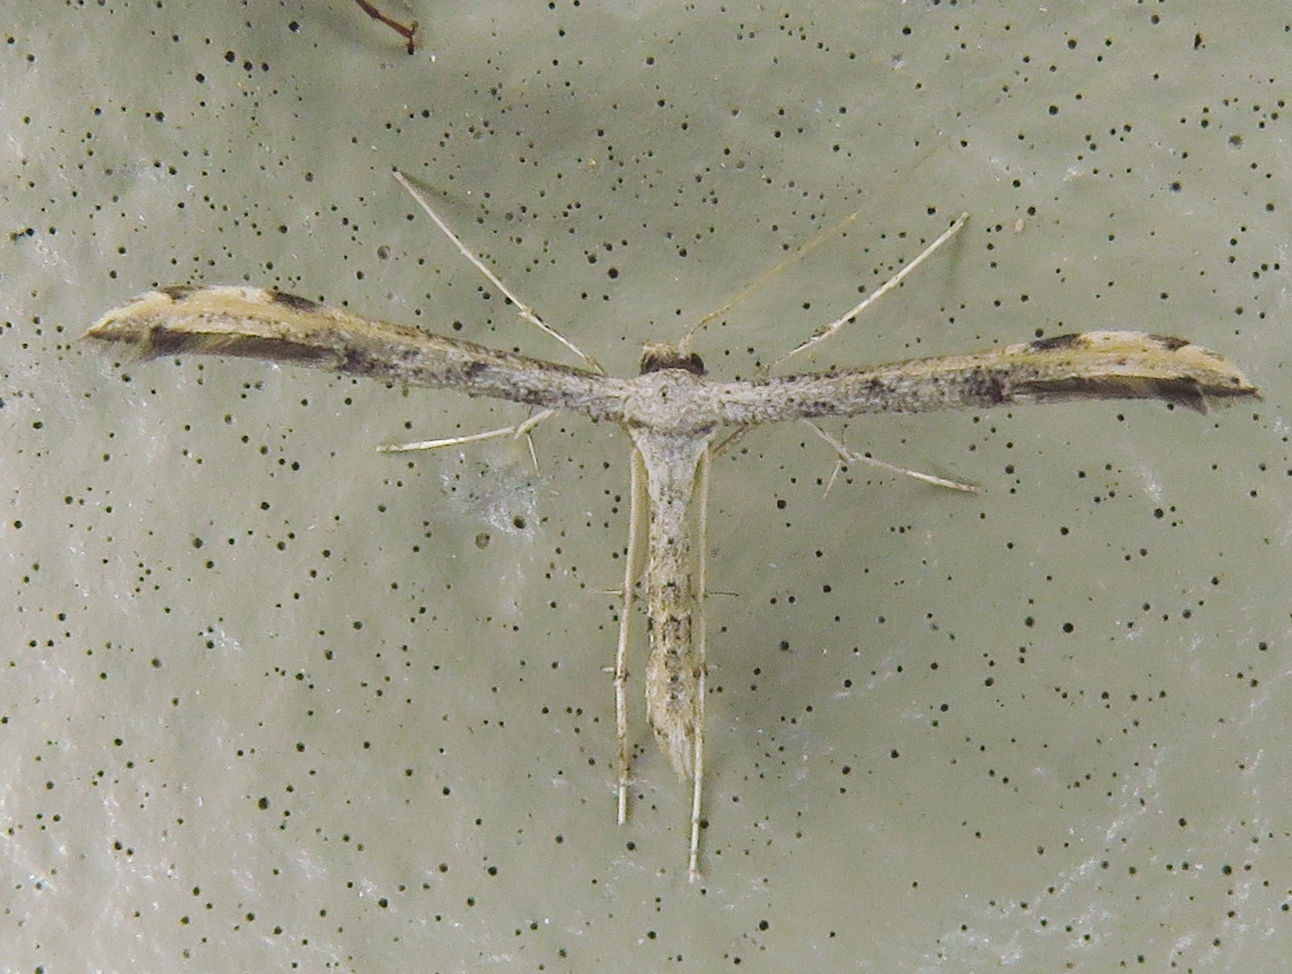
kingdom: Animalia
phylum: Arthropoda
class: Insecta
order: Lepidoptera
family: Pterophoridae
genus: Adaina
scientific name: Adaina ambrosiae
